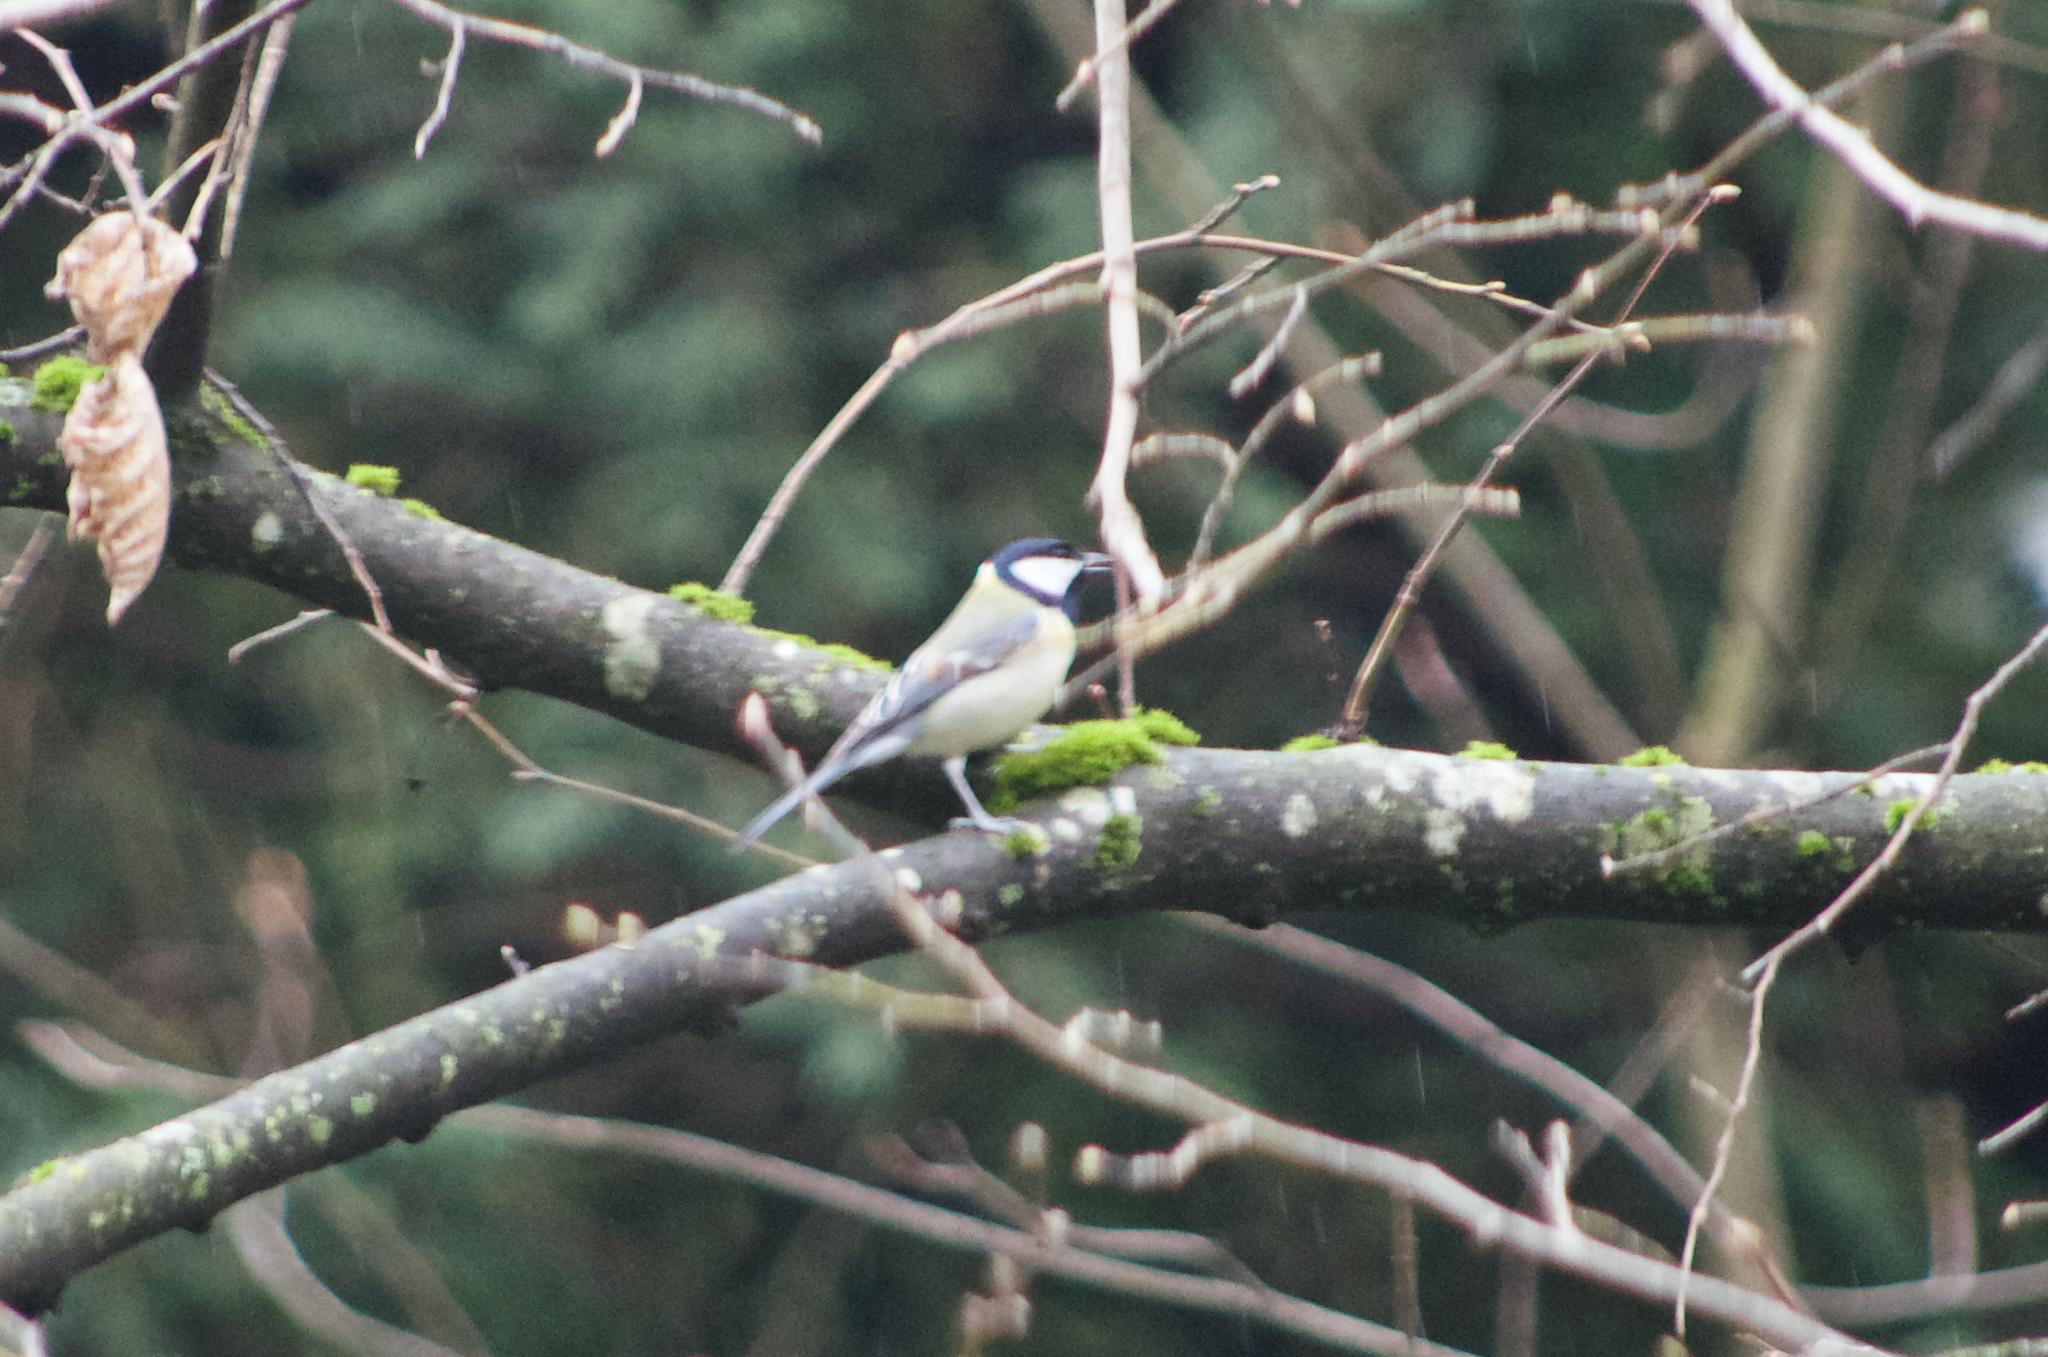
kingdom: Animalia
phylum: Chordata
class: Aves
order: Passeriformes
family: Paridae
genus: Parus
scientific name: Parus major
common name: Great tit
